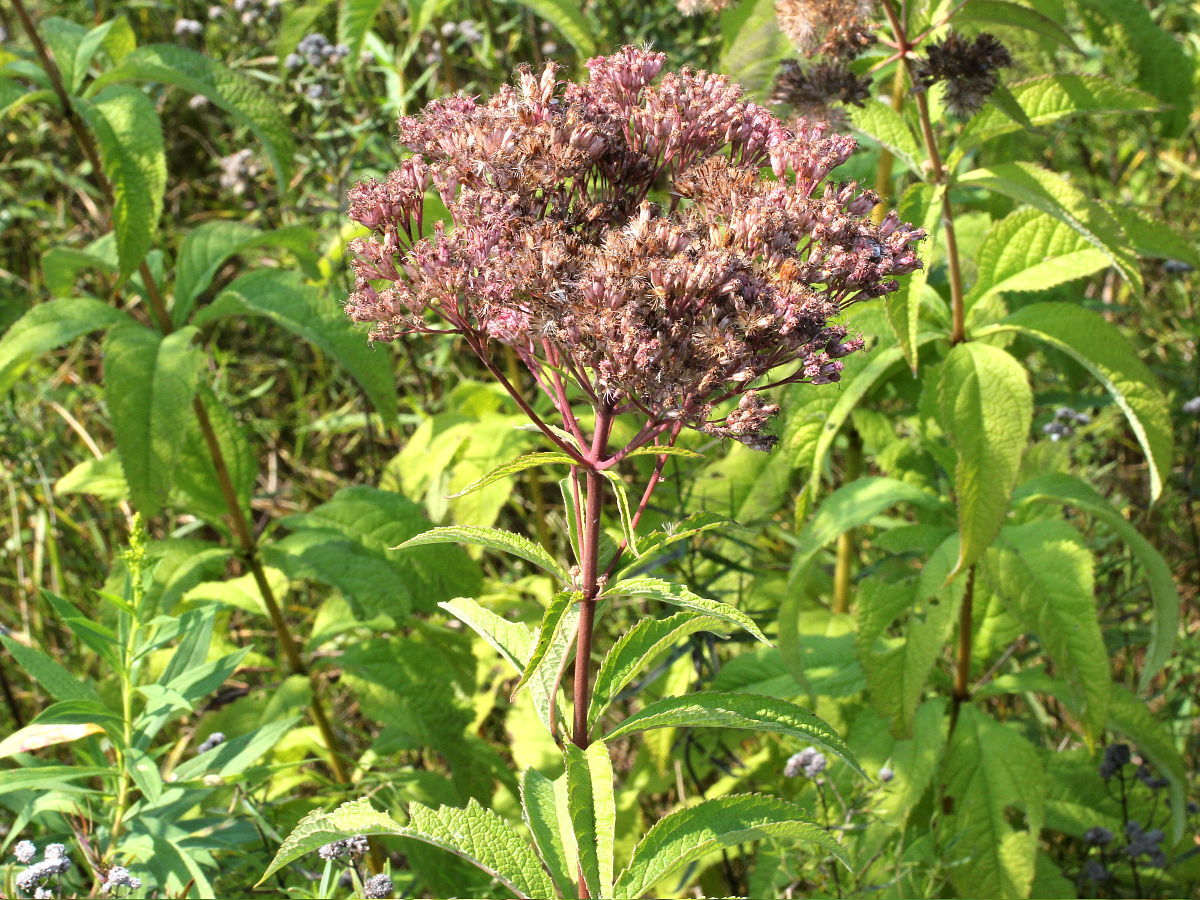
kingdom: Plantae
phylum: Tracheophyta
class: Magnoliopsida
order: Asterales
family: Asteraceae
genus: Eutrochium
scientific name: Eutrochium maculatum
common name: Spotted joe pye weed
